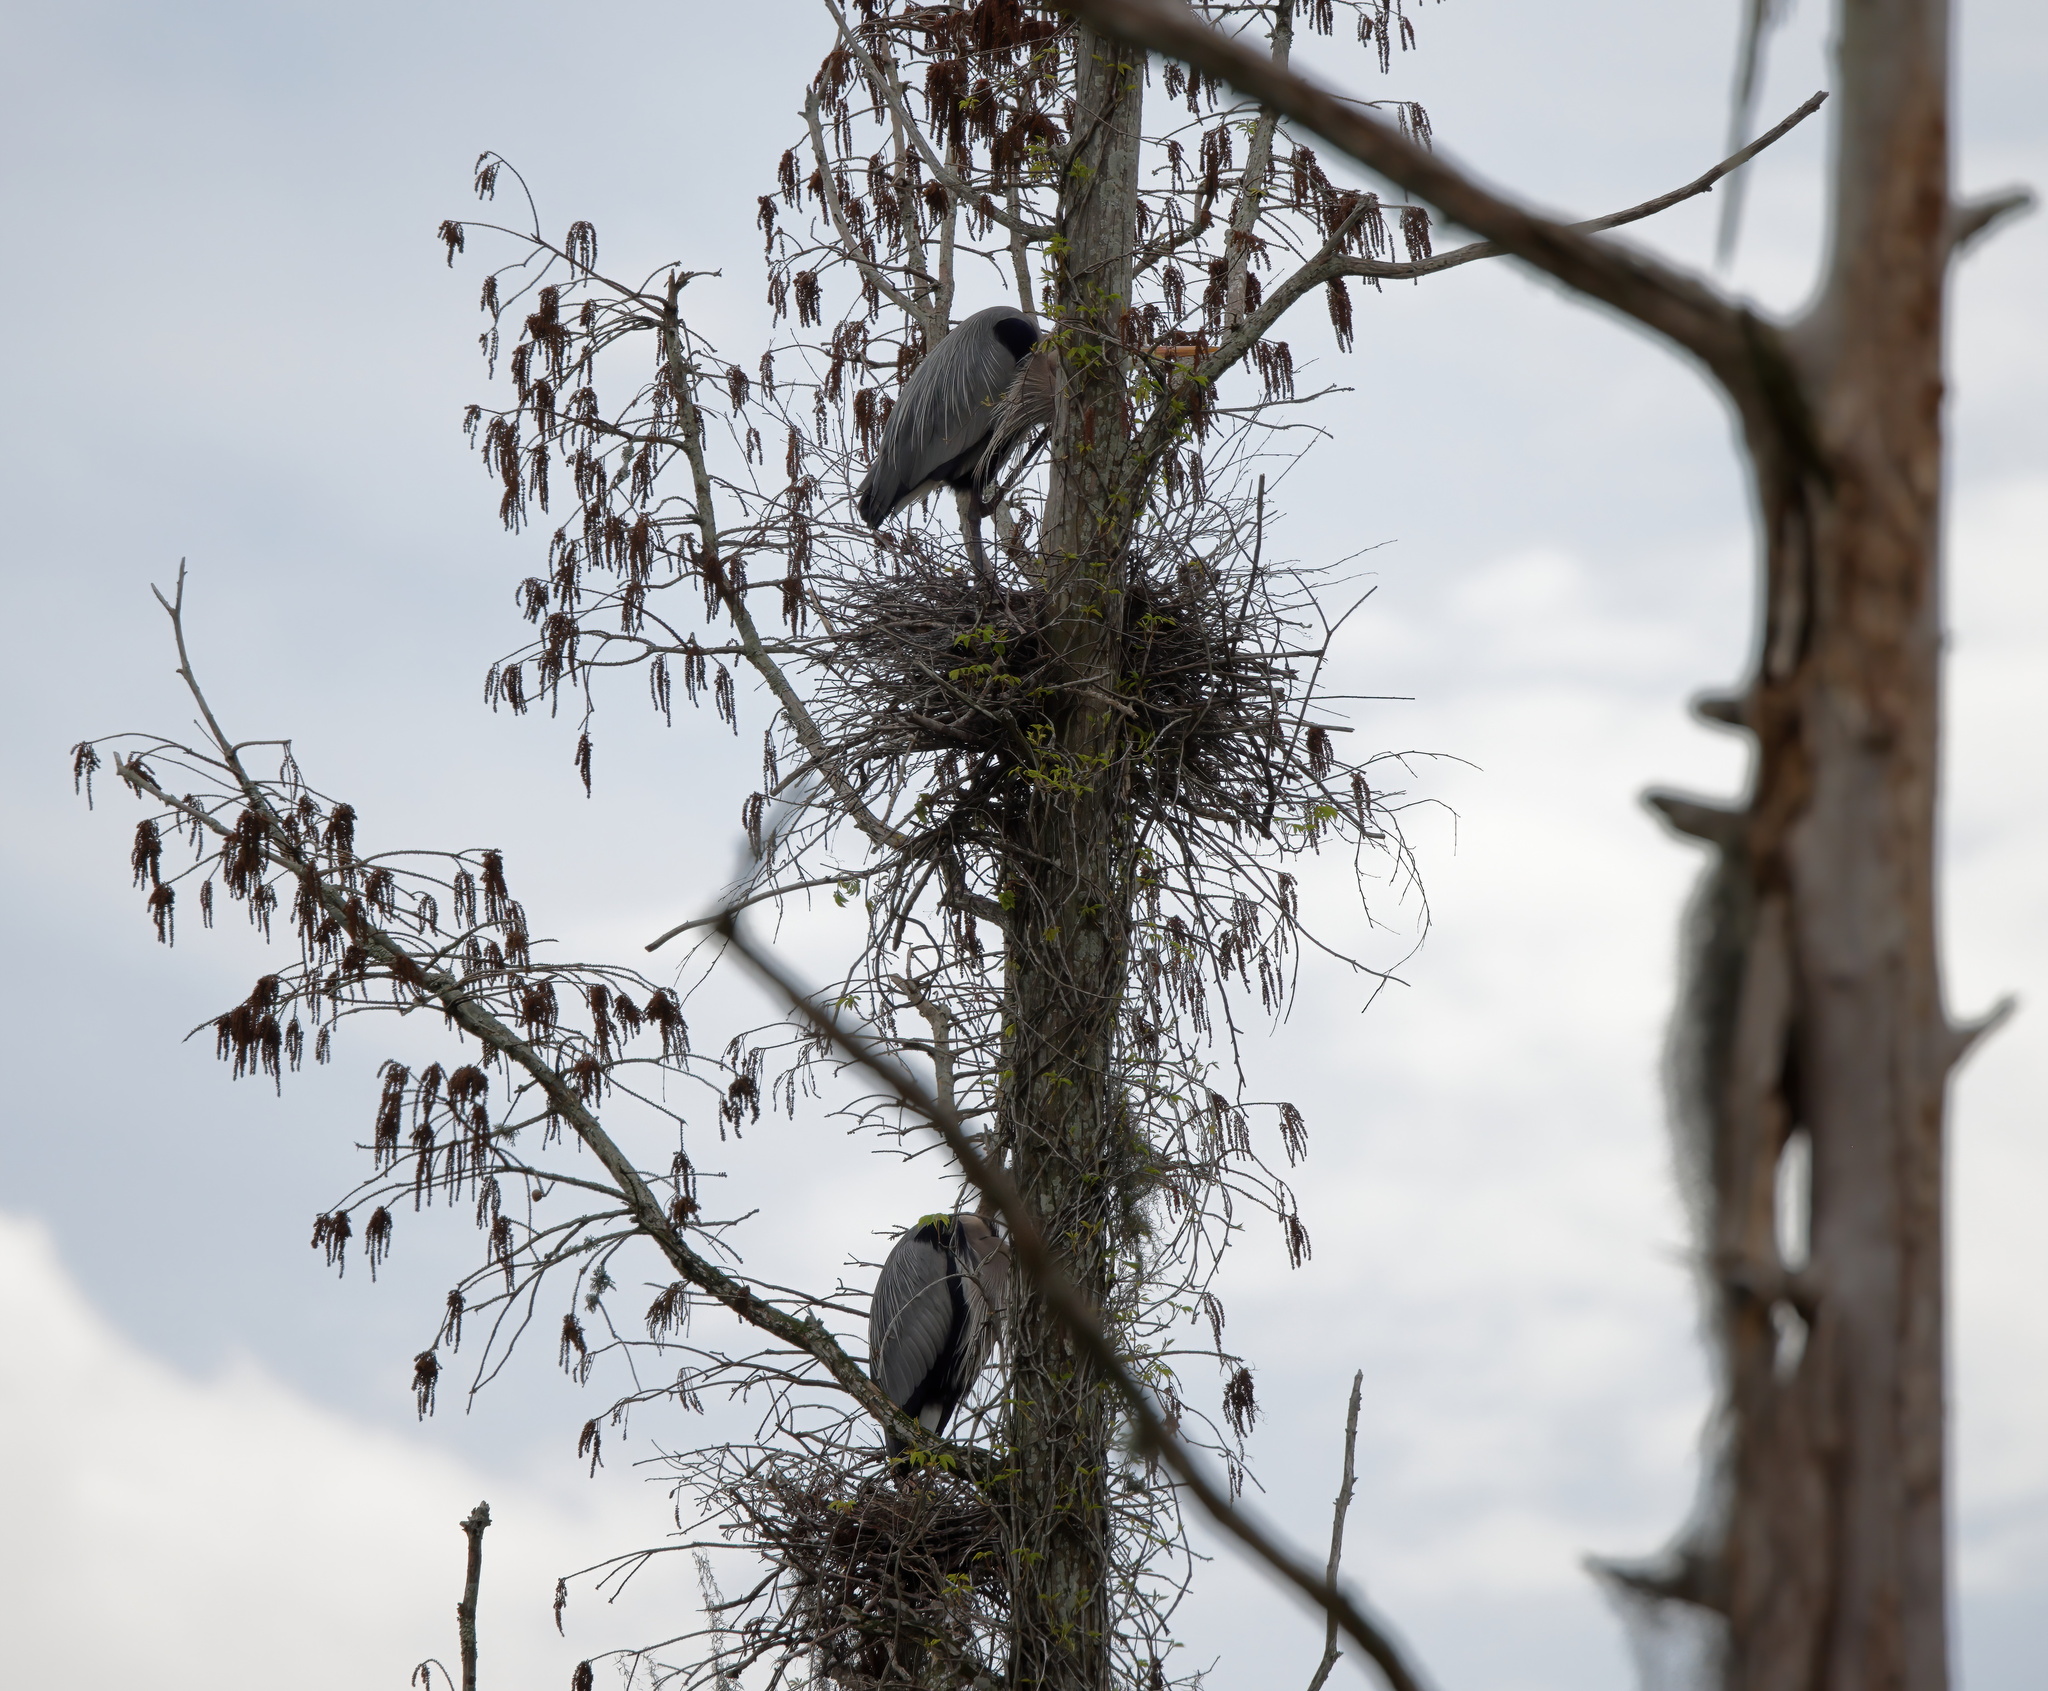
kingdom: Animalia
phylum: Chordata
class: Aves
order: Pelecaniformes
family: Ardeidae
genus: Ardea
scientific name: Ardea herodias
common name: Great blue heron
